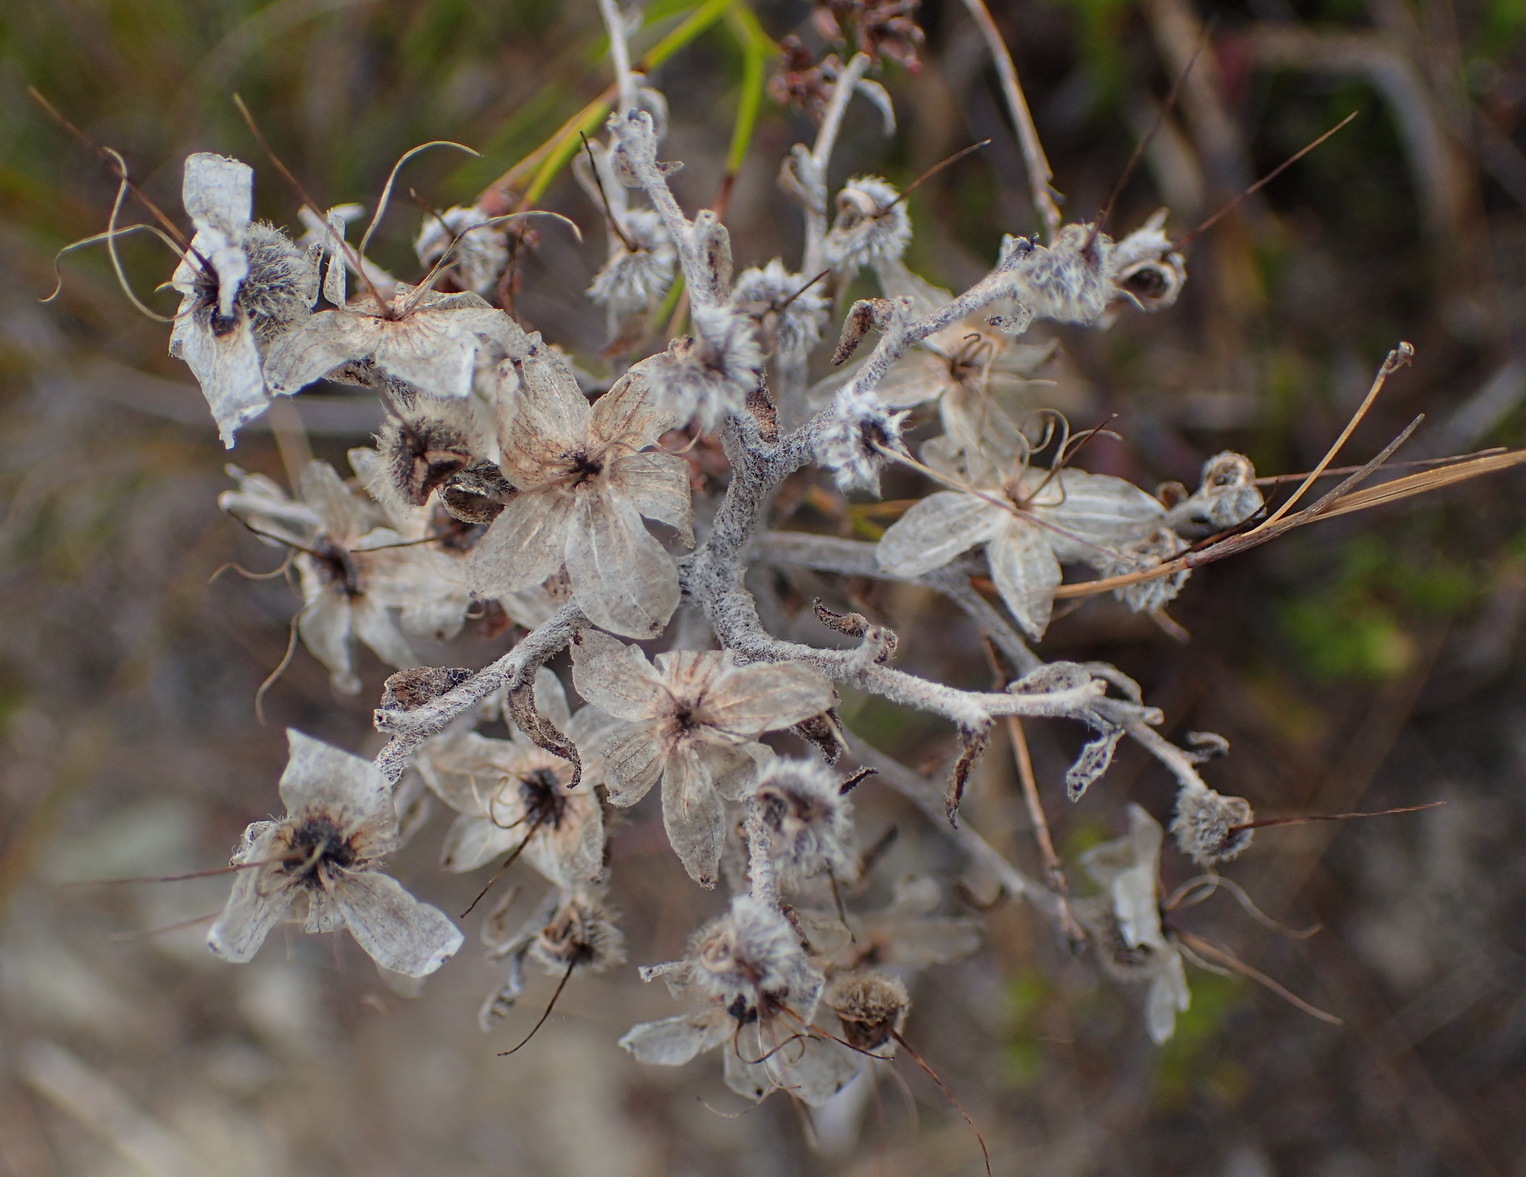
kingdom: Plantae
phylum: Tracheophyta
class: Liliopsida
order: Commelinales
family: Haemodoraceae
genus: Dilatris
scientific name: Dilatris ixioides
